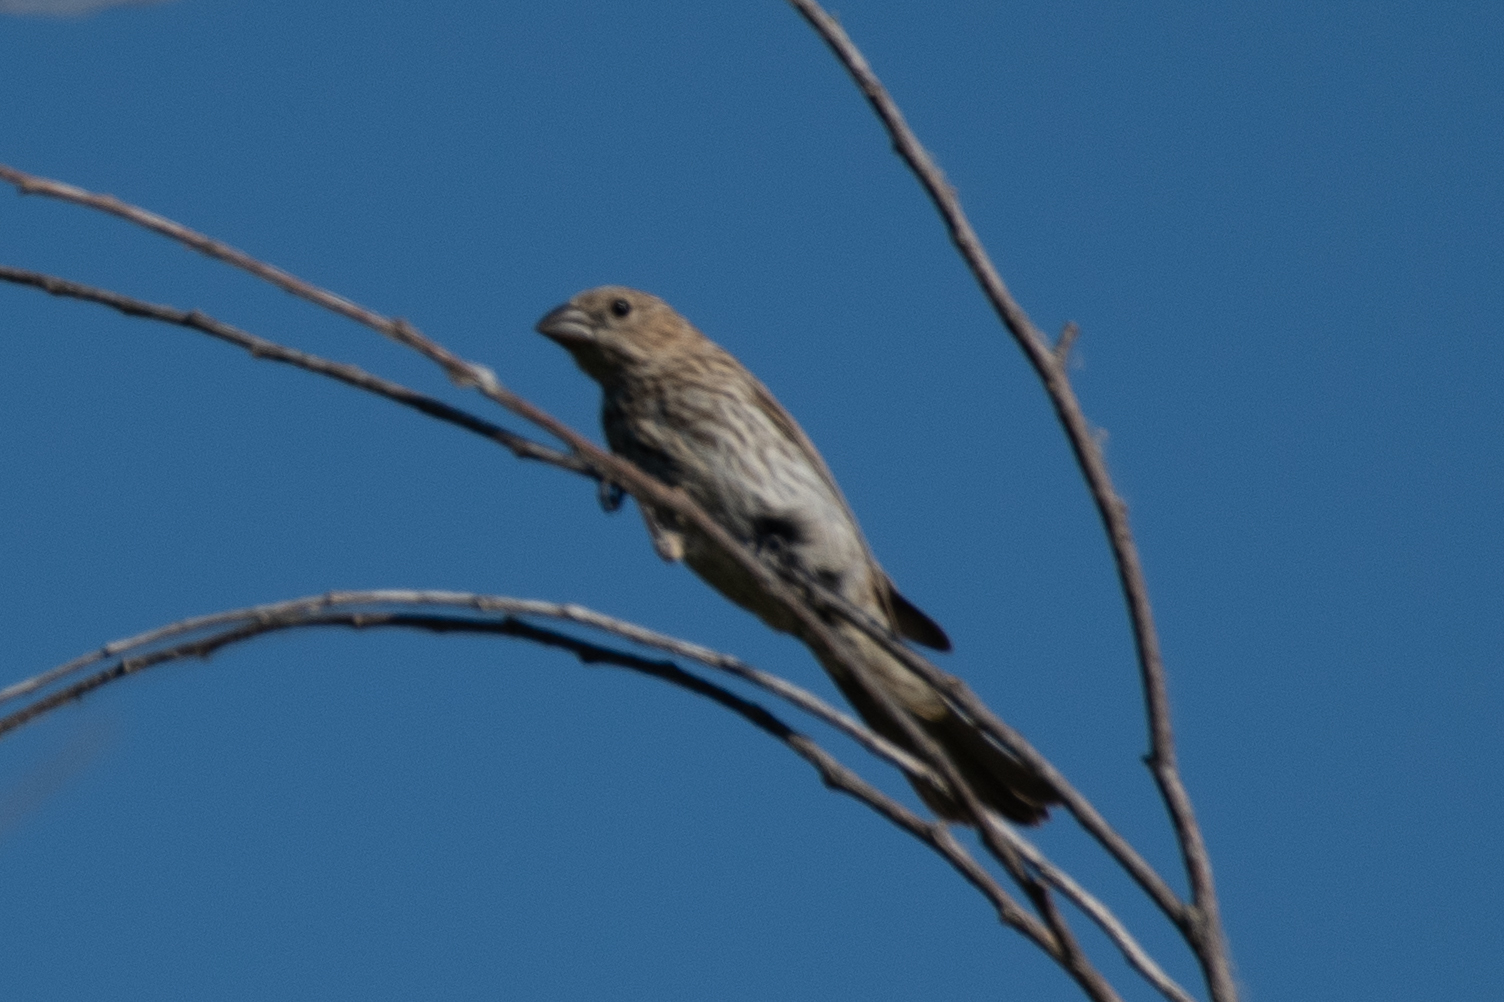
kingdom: Animalia
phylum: Chordata
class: Aves
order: Passeriformes
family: Fringillidae
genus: Haemorhous
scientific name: Haemorhous mexicanus
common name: House finch
